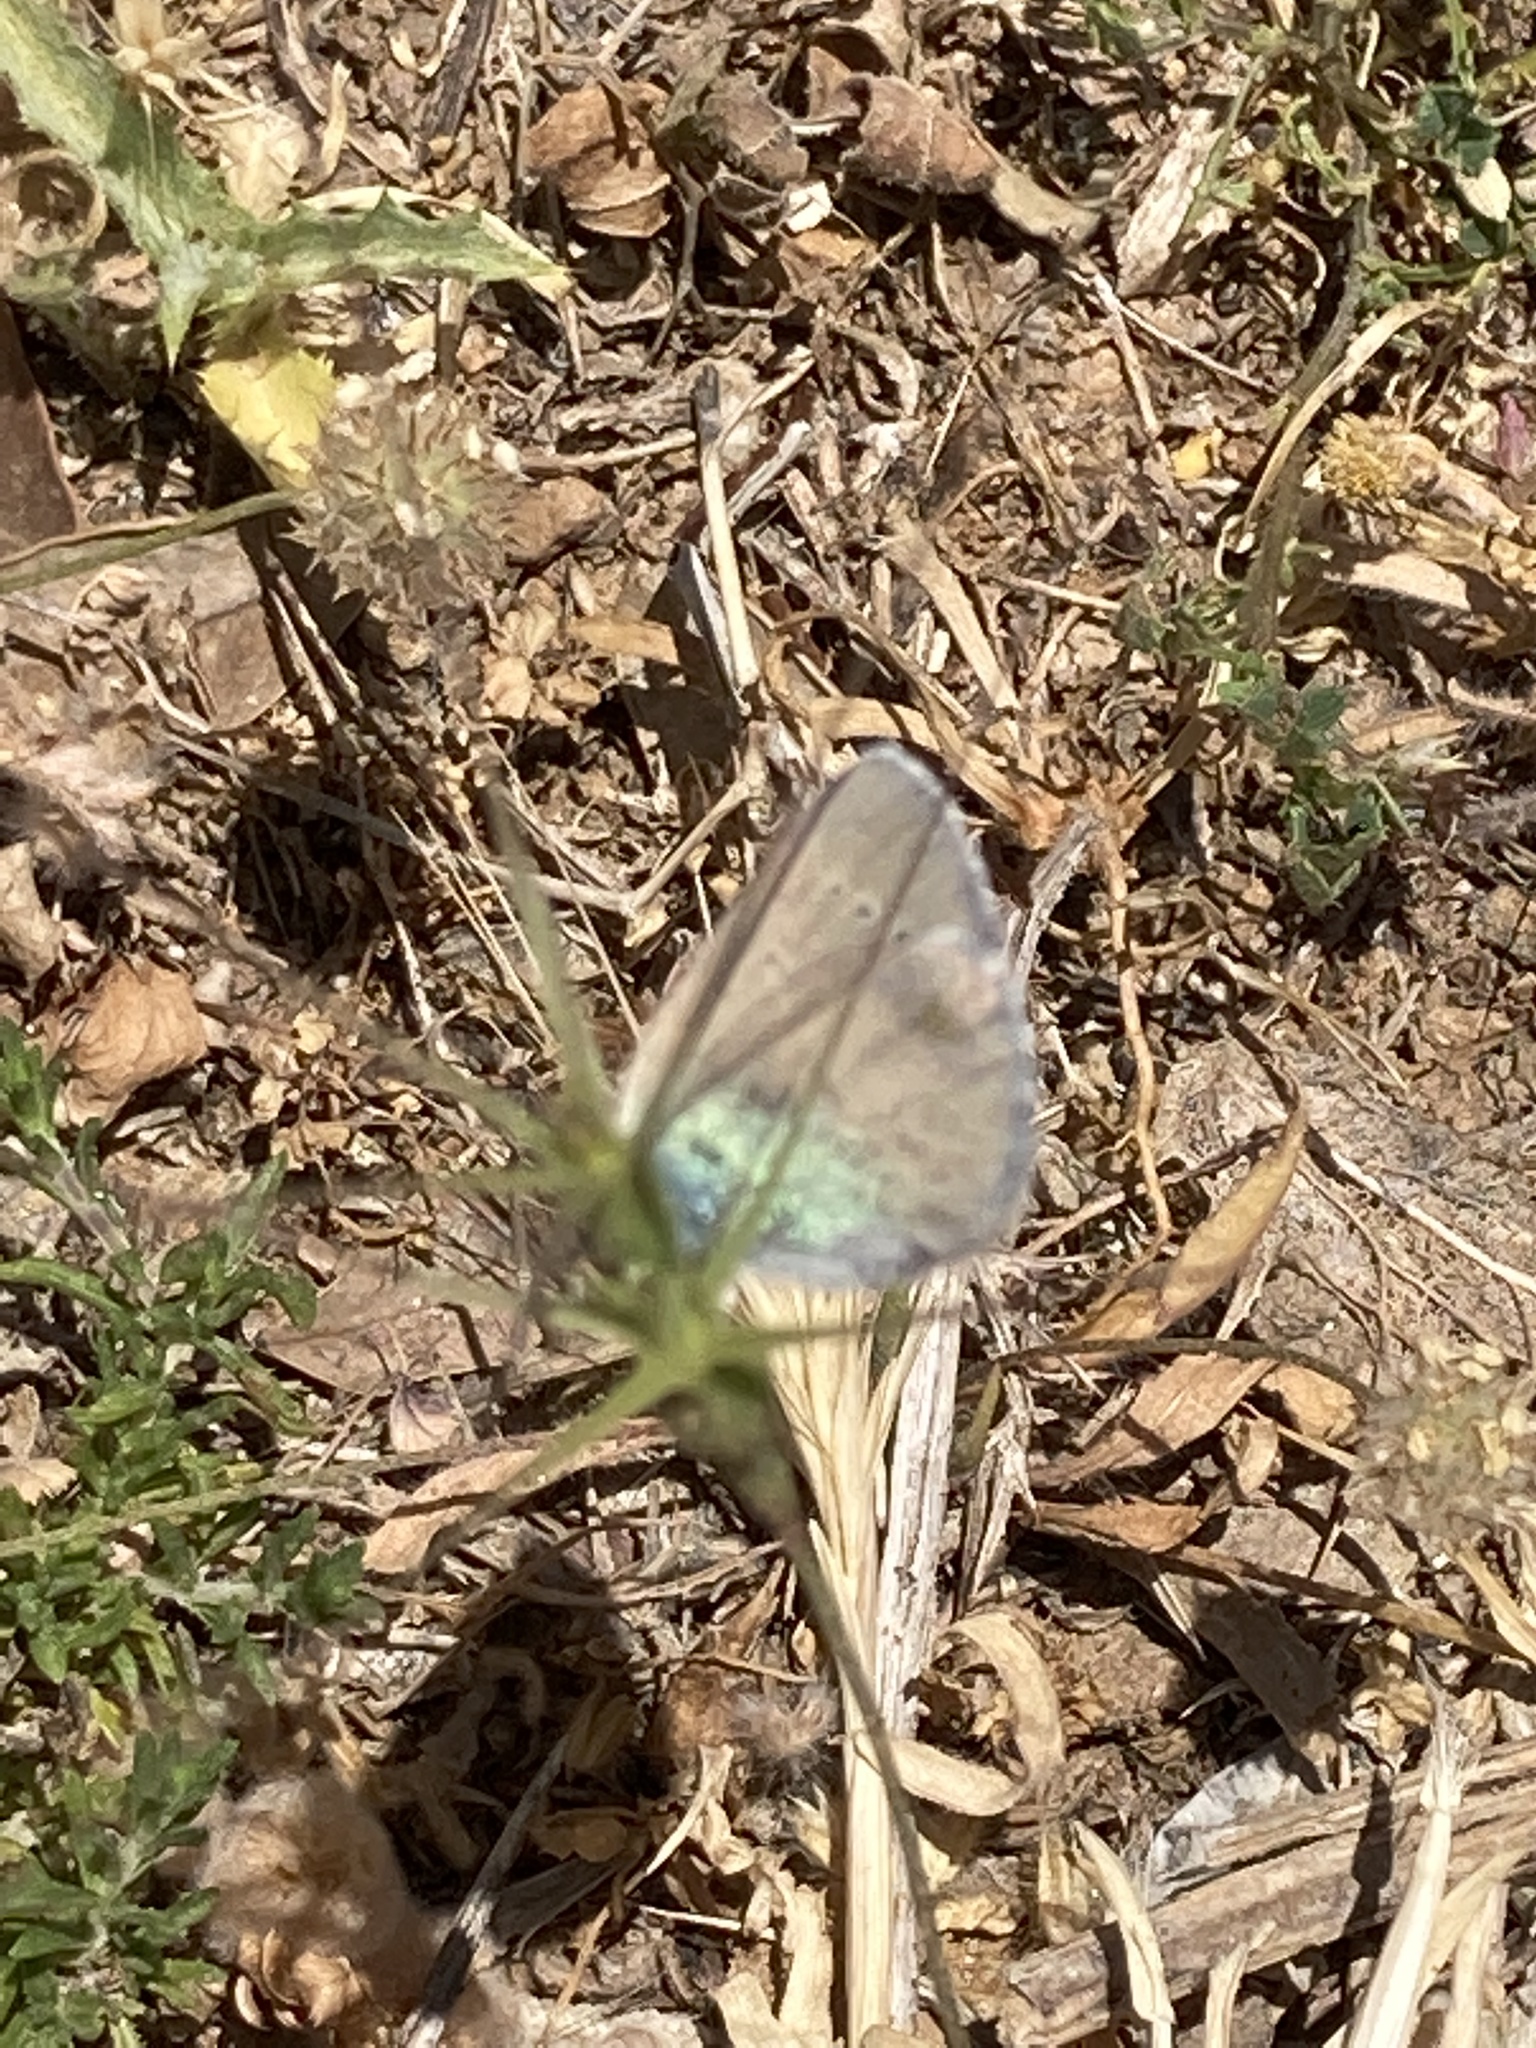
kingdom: Animalia
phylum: Arthropoda
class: Insecta
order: Lepidoptera
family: Lycaenidae
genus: Glaucopsyche
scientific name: Glaucopsyche alexis
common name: Green-underside blue
